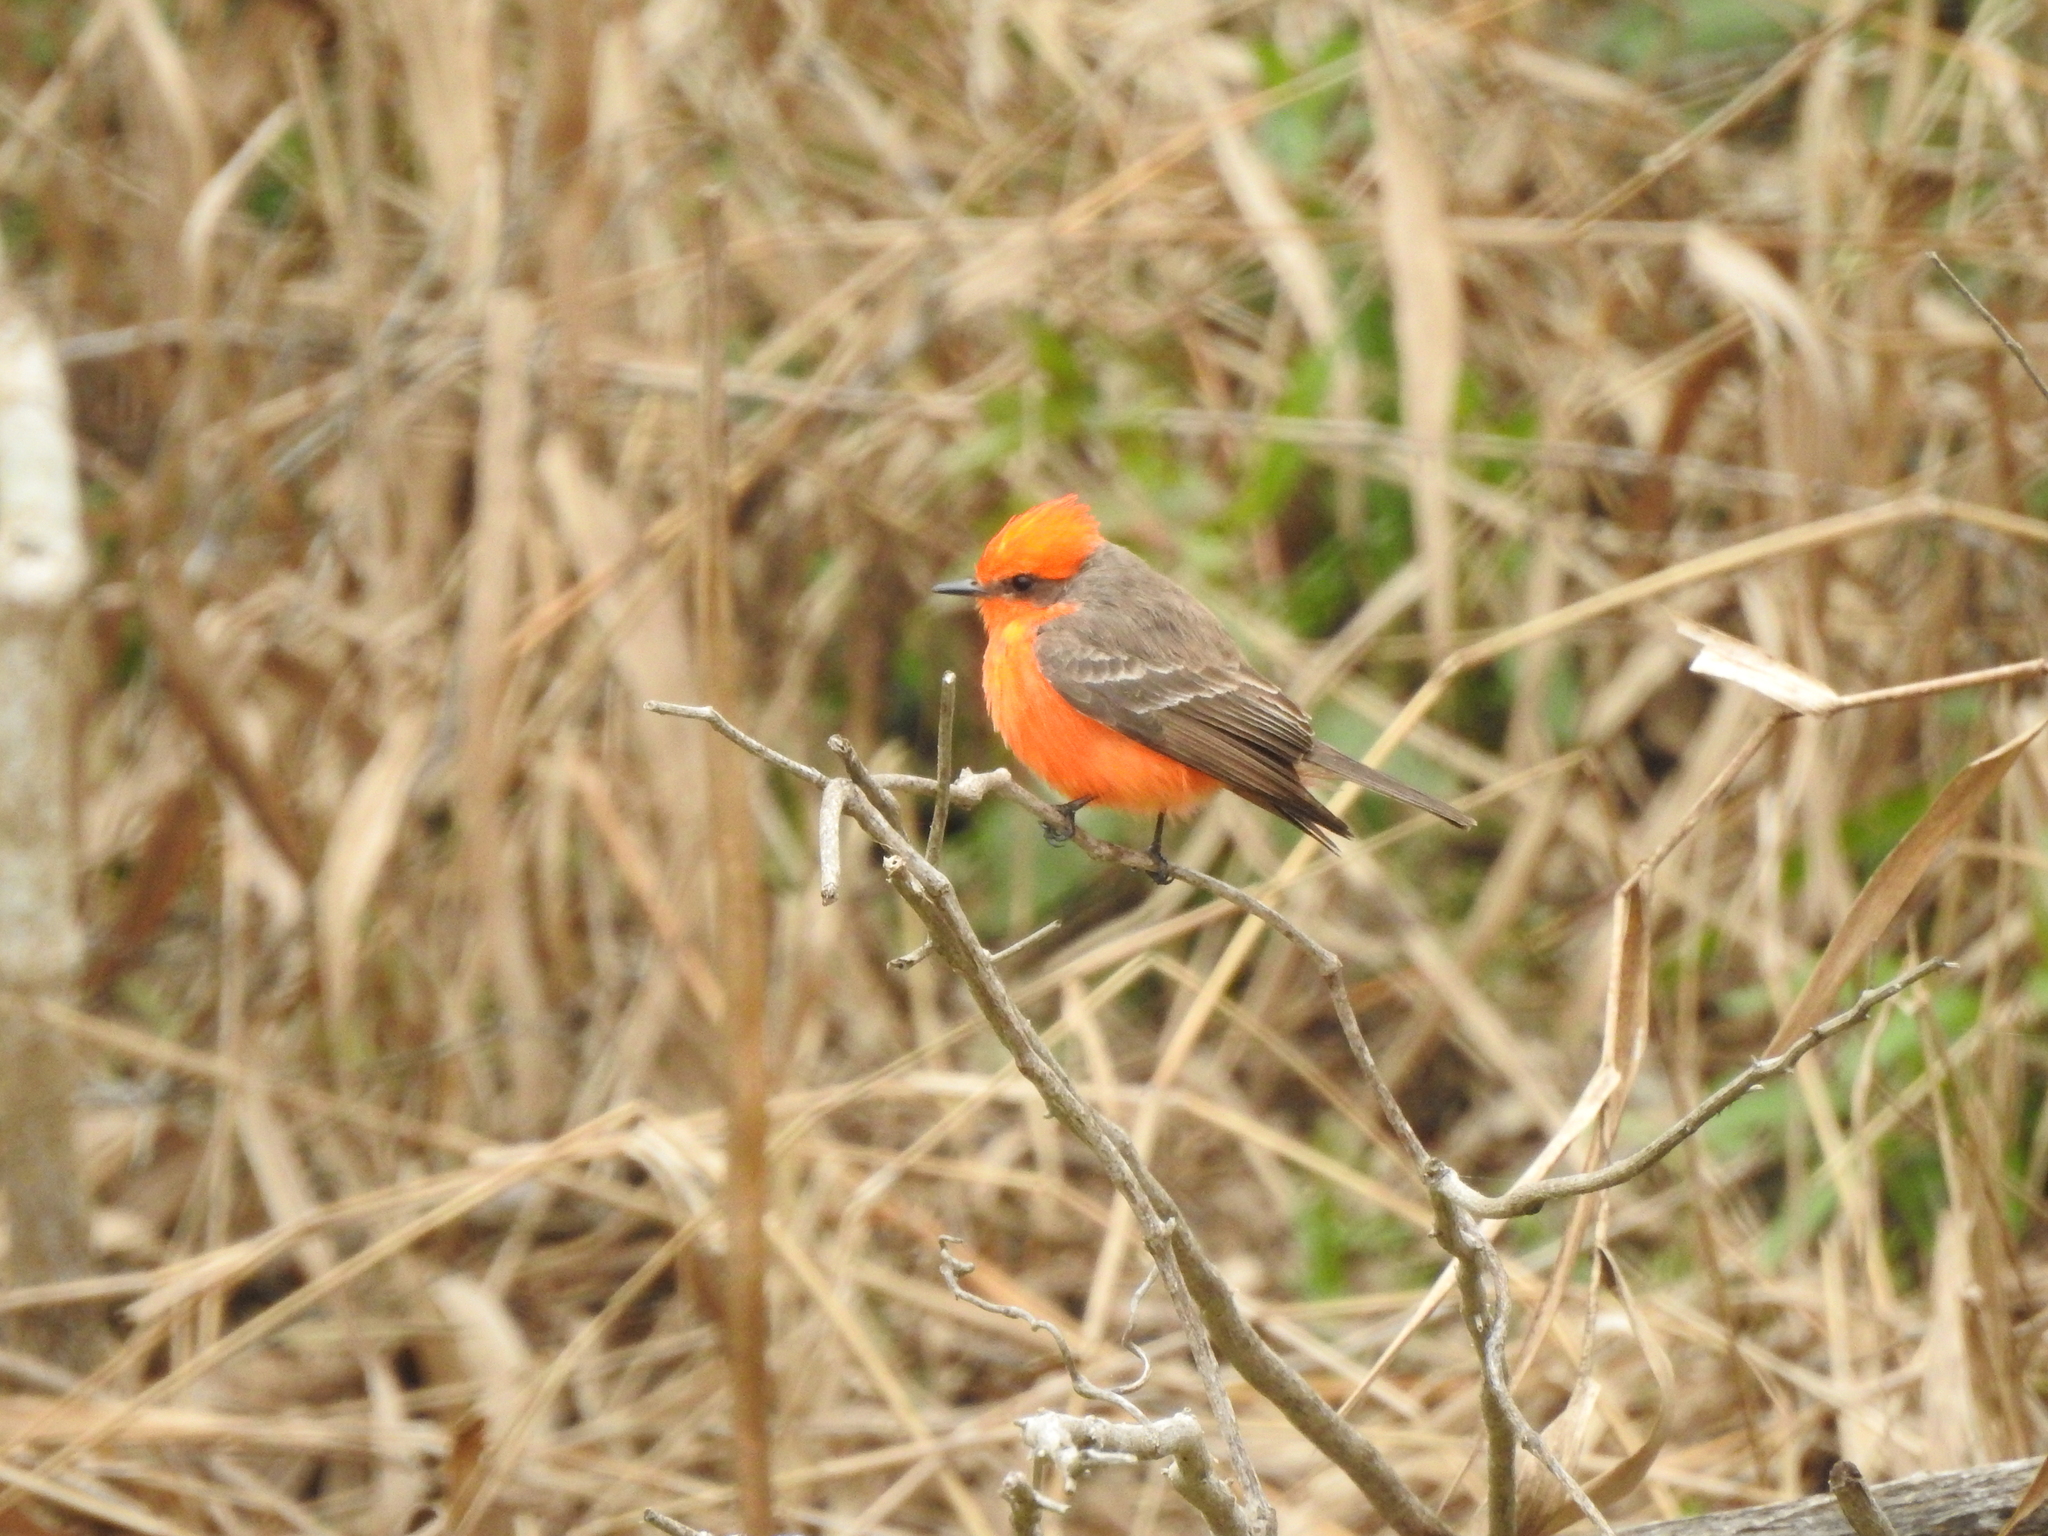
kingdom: Animalia
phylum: Chordata
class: Aves
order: Passeriformes
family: Tyrannidae
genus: Pyrocephalus
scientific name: Pyrocephalus rubinus
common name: Vermilion flycatcher
